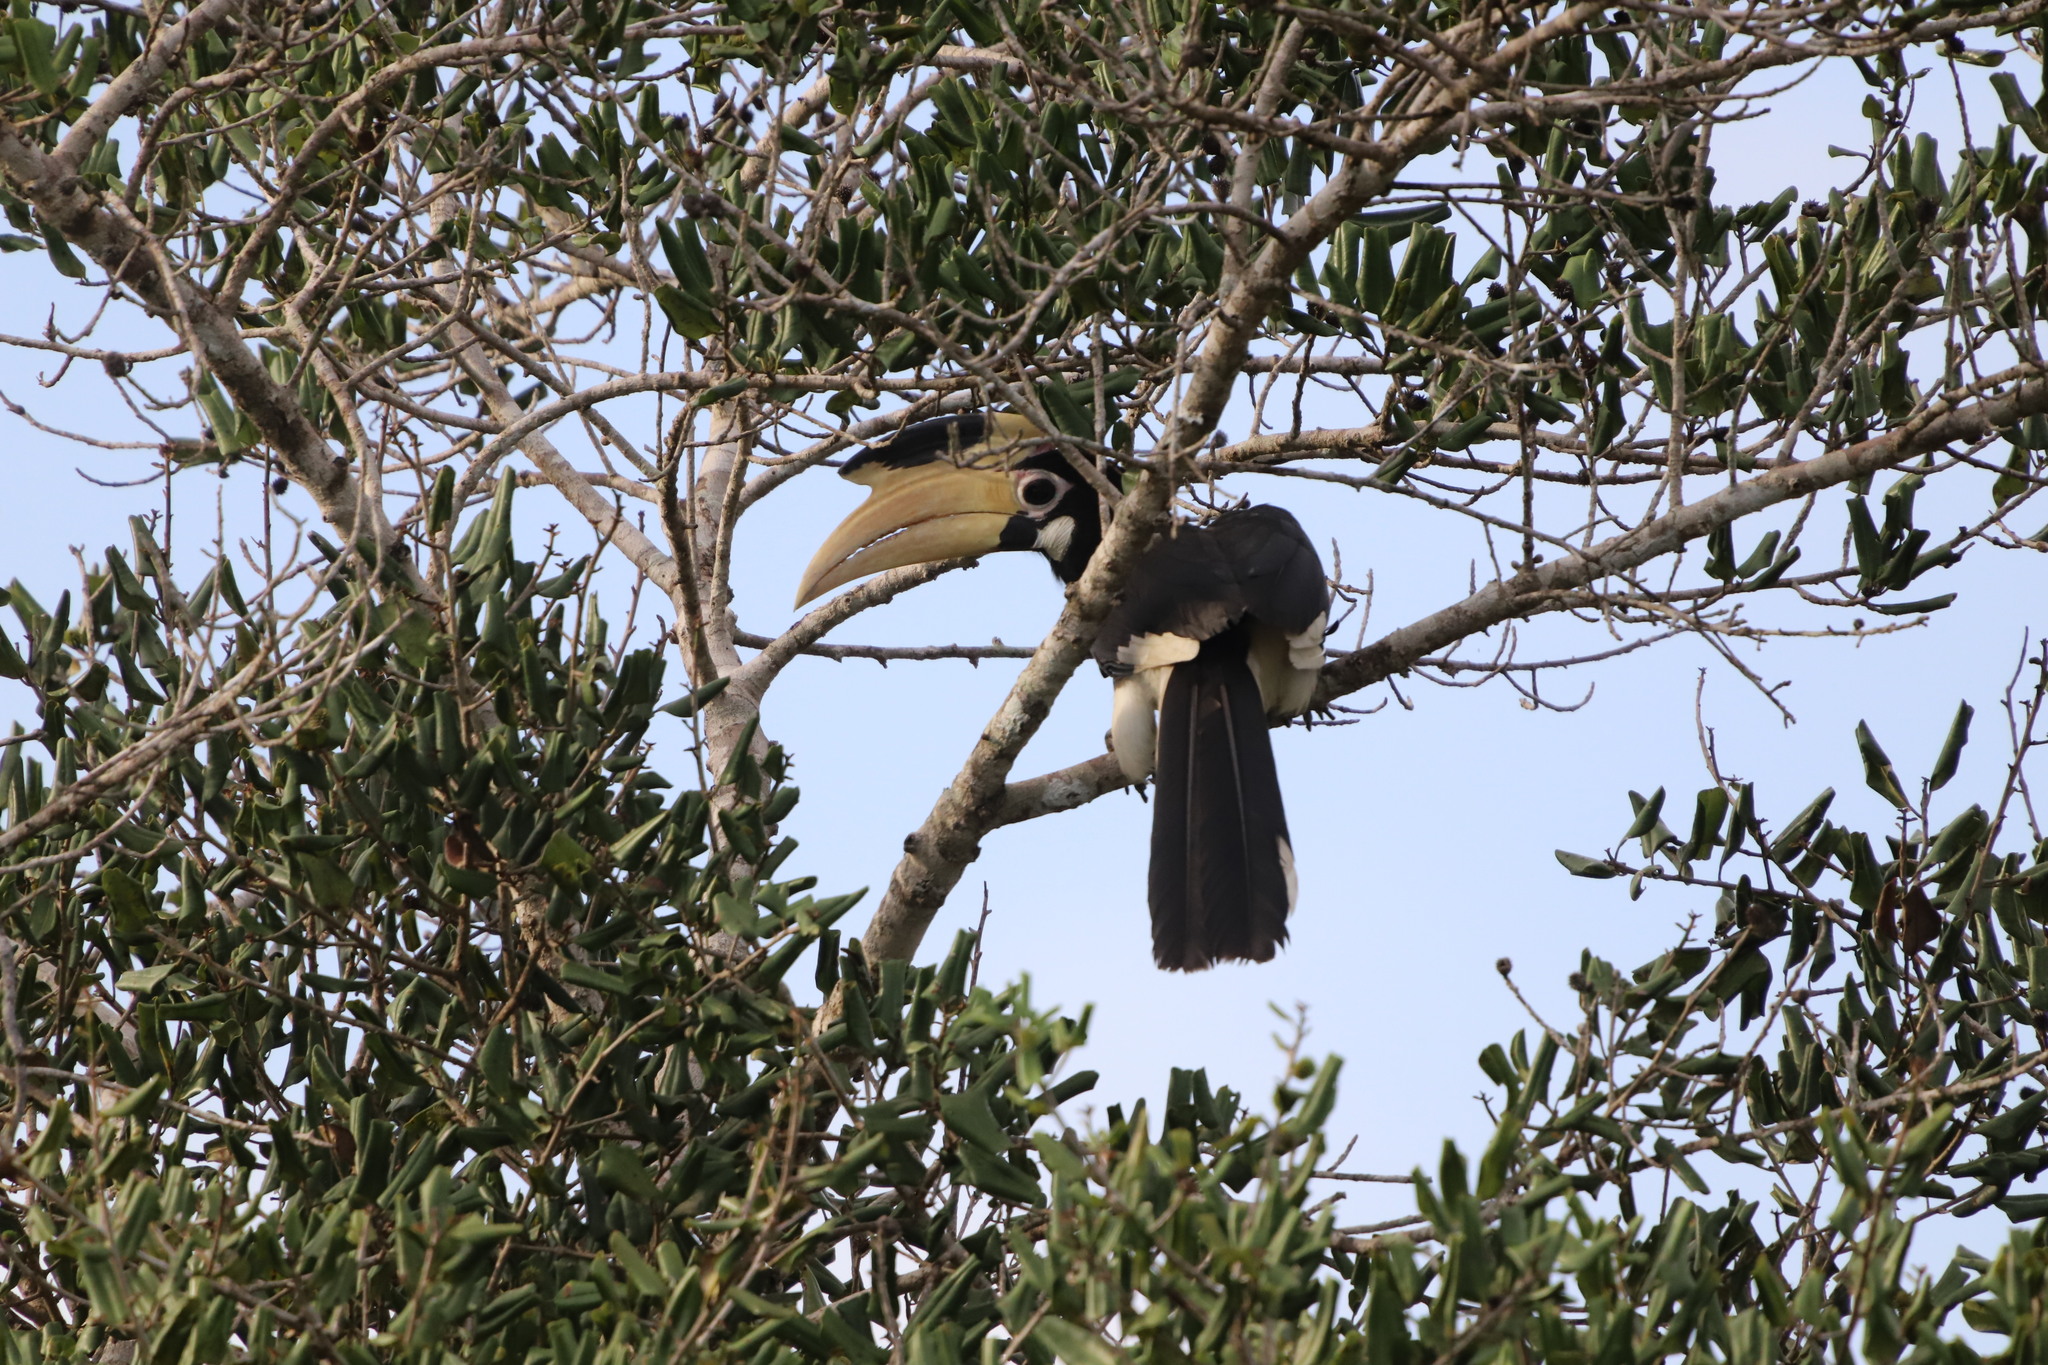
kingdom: Animalia
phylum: Chordata
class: Aves
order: Bucerotiformes
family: Bucerotidae
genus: Anthracoceros
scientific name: Anthracoceros coronatus
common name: Malabar pied hornbill
